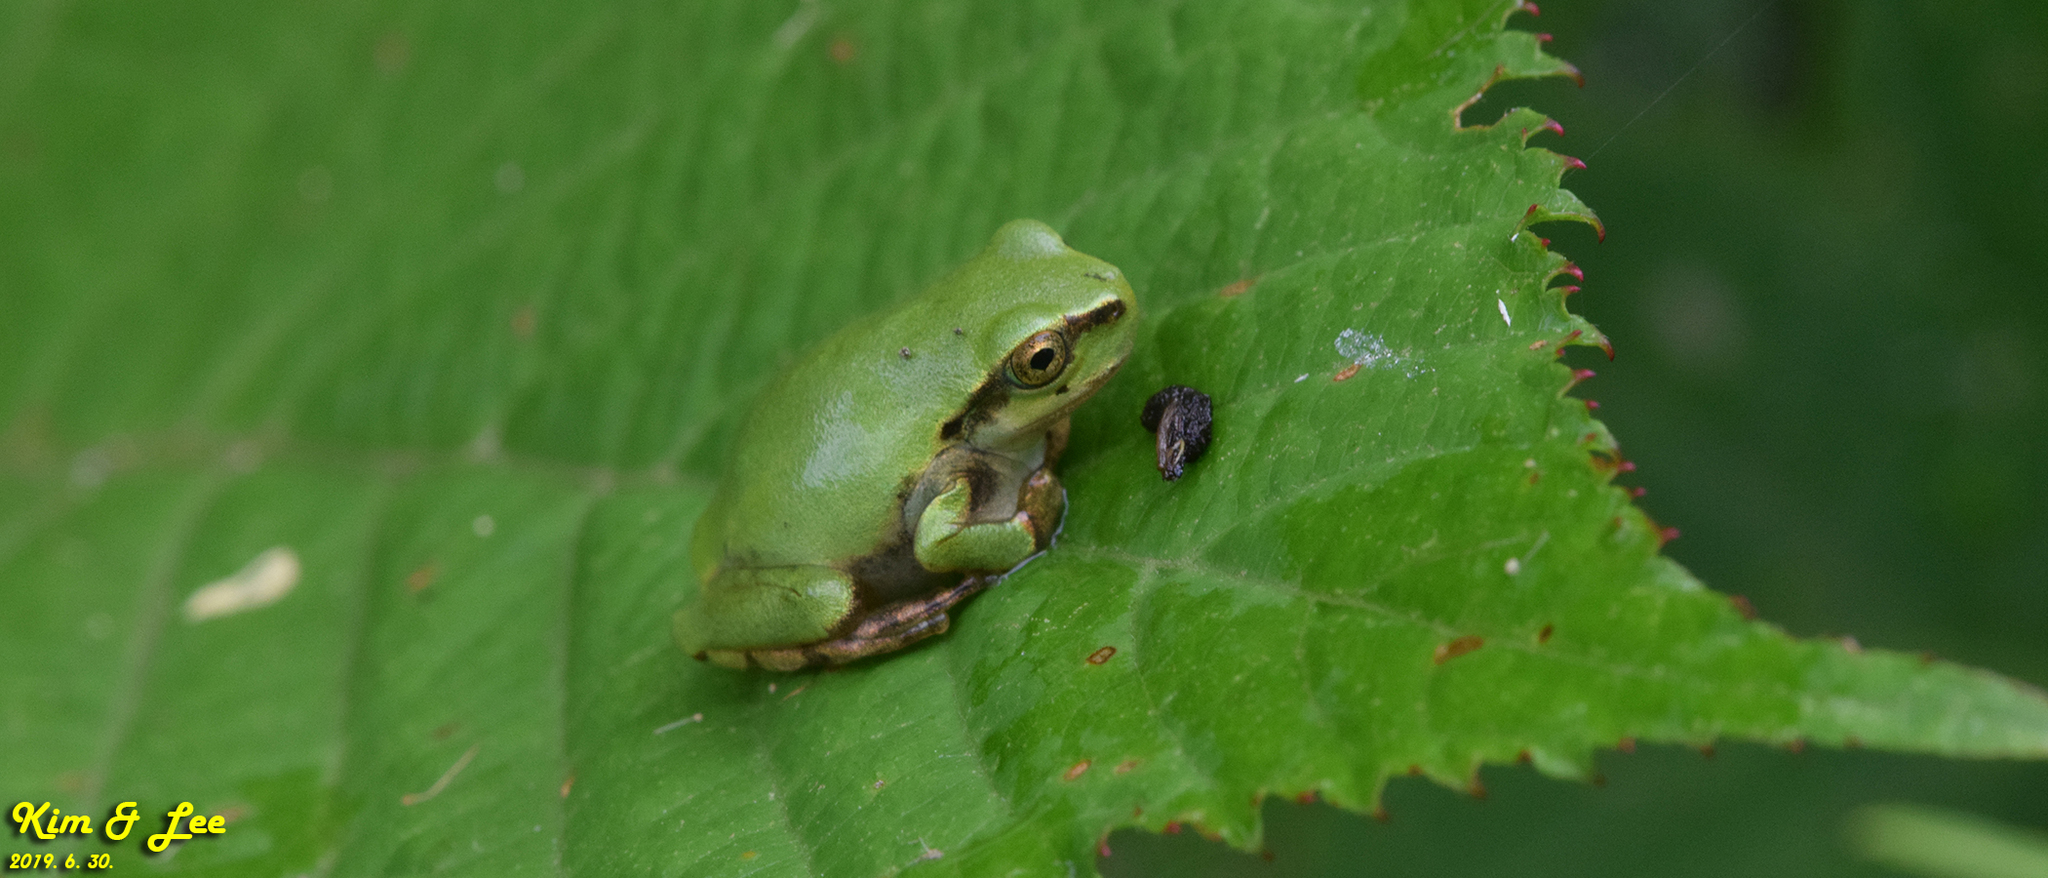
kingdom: Animalia
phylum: Chordata
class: Amphibia
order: Anura
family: Hylidae
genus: Dryophytes
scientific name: Dryophytes japonicus
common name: Japanese treefrog
